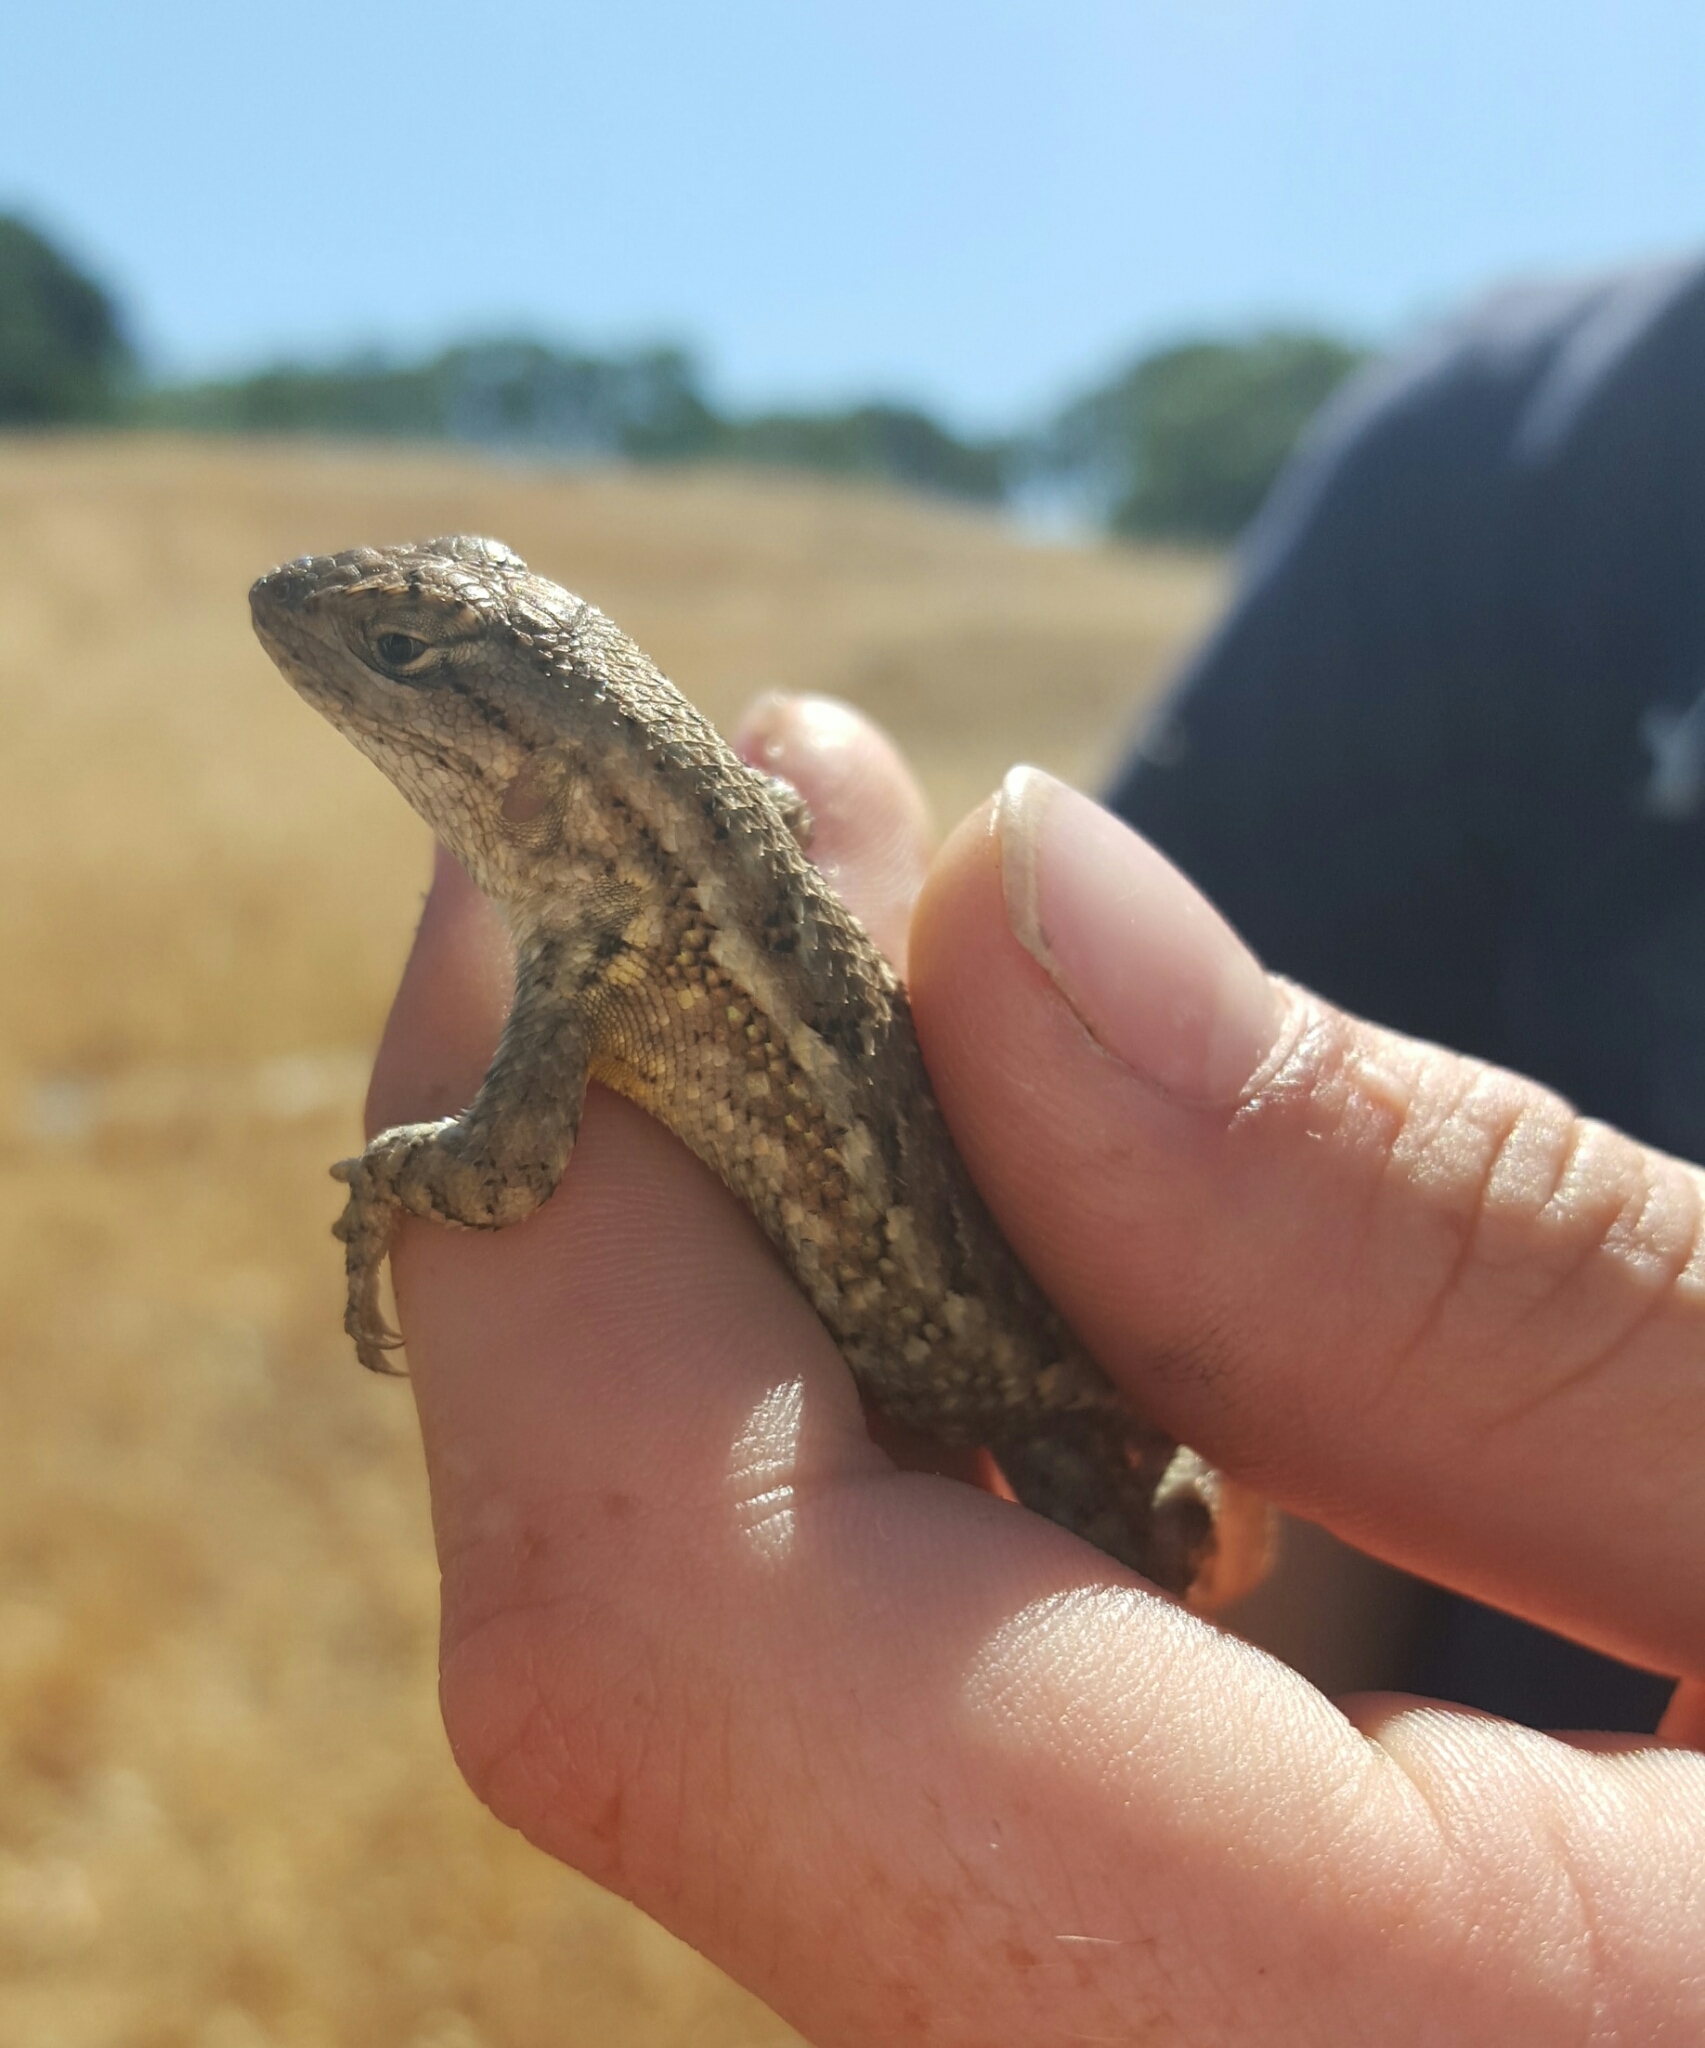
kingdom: Animalia
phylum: Chordata
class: Squamata
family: Phrynosomatidae
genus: Sceloporus
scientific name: Sceloporus occidentalis
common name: Western fence lizard
